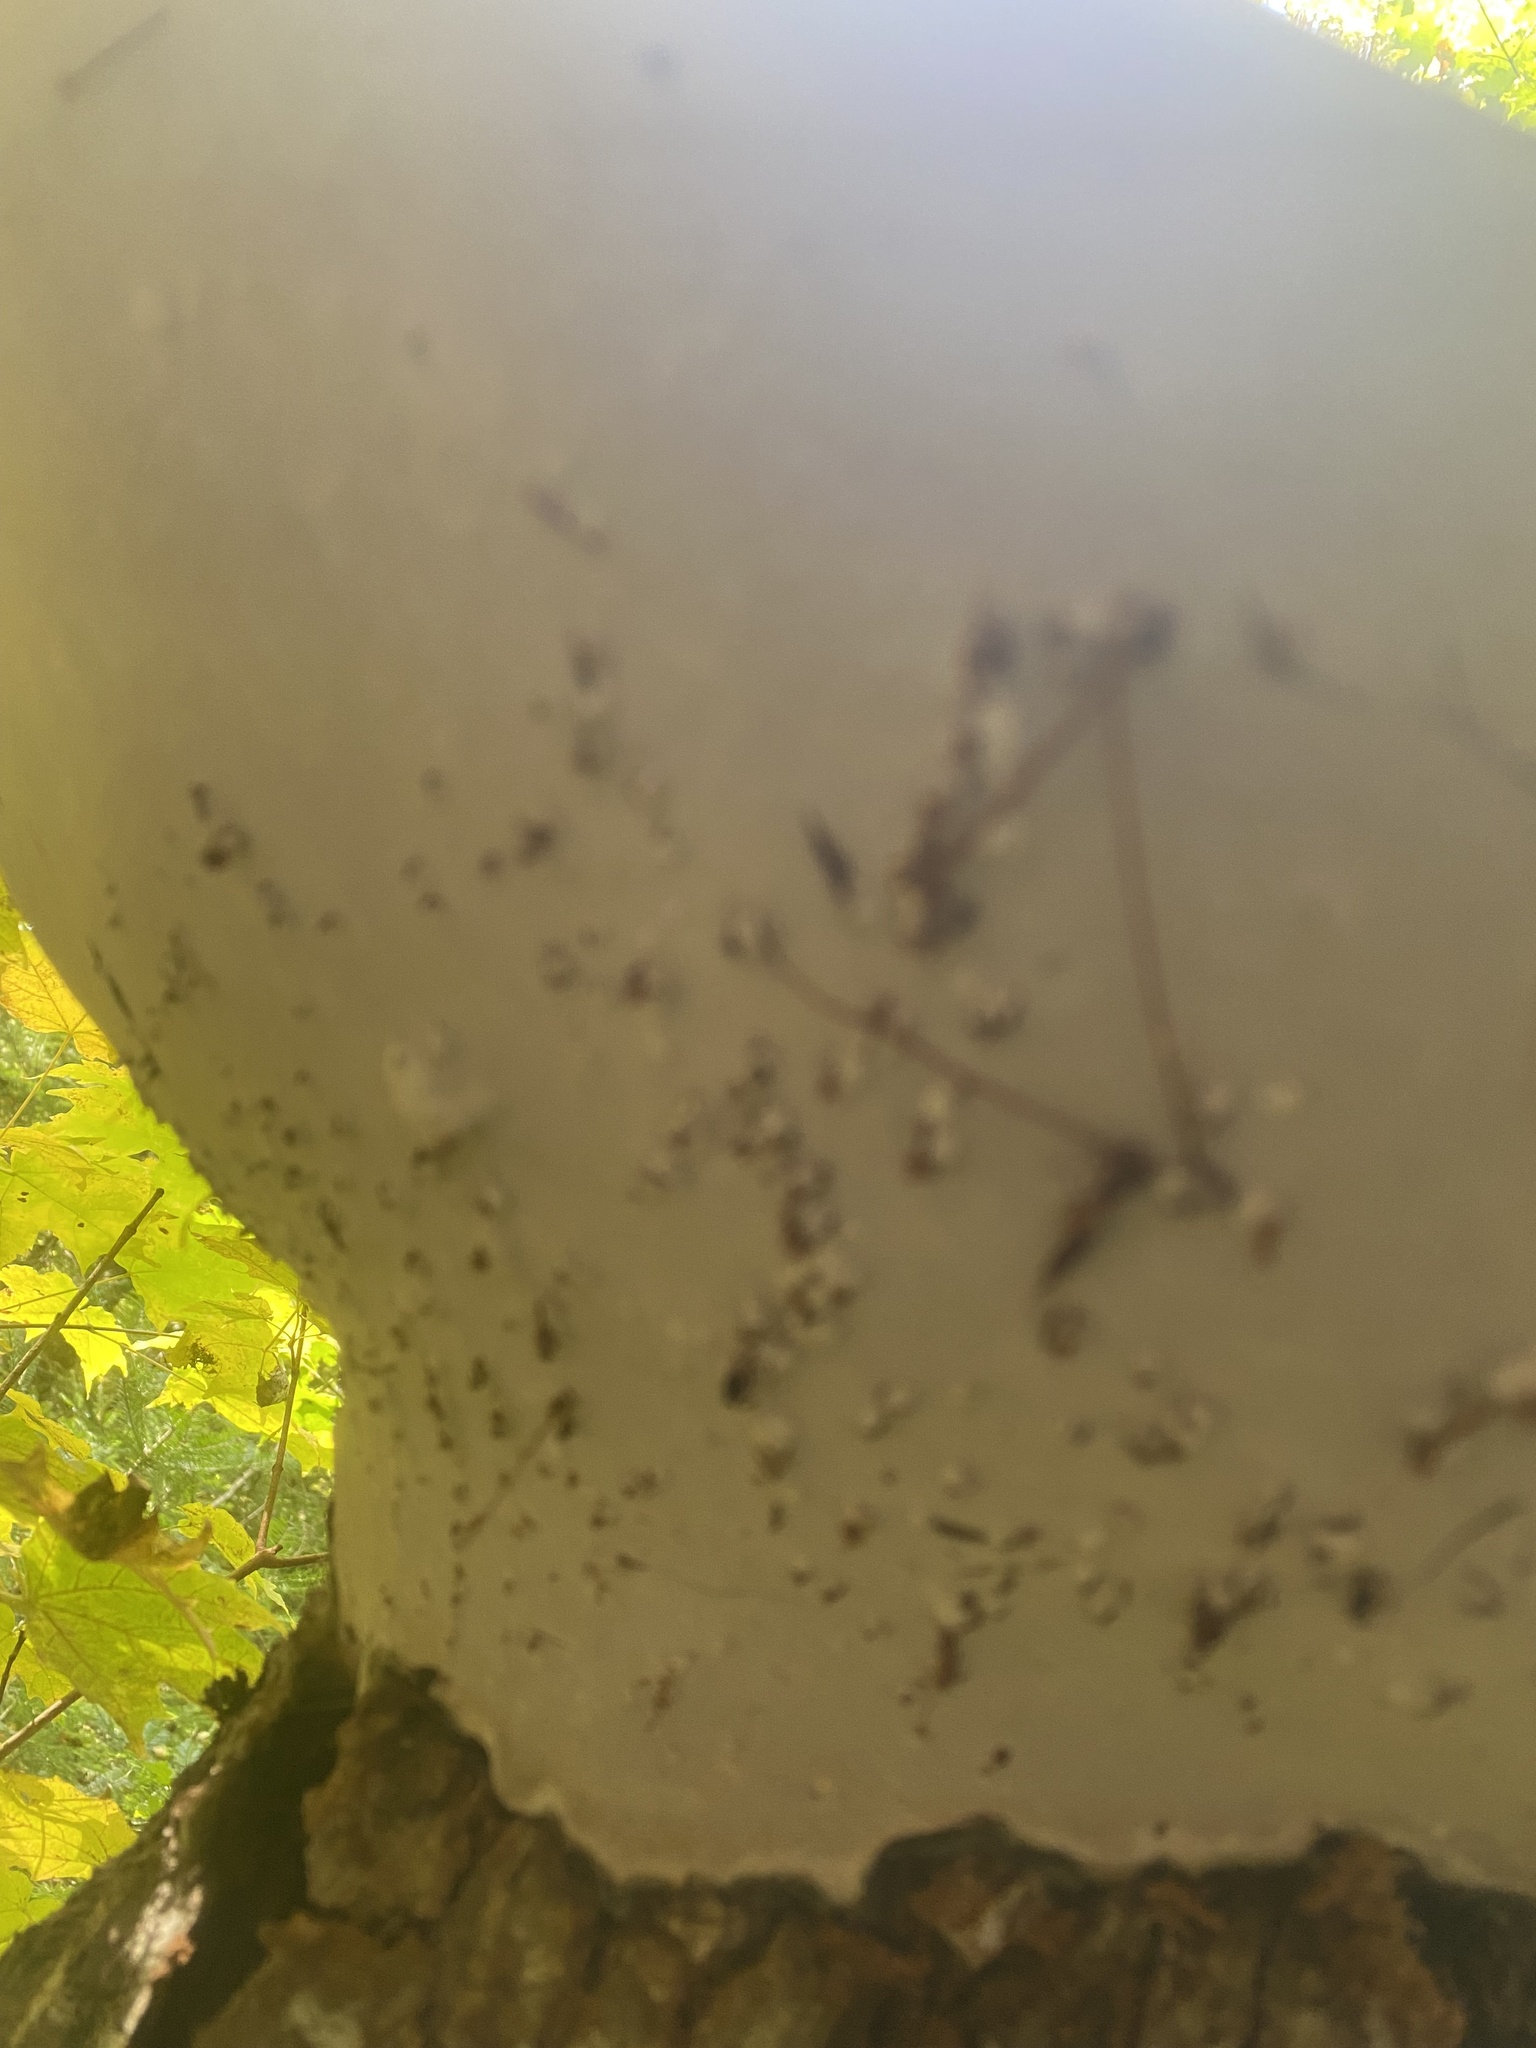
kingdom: Fungi
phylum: Basidiomycota
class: Agaricomycetes
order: Polyporales
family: Polyporaceae
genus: Ganoderma
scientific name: Ganoderma applanatum
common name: Artist's bracket
